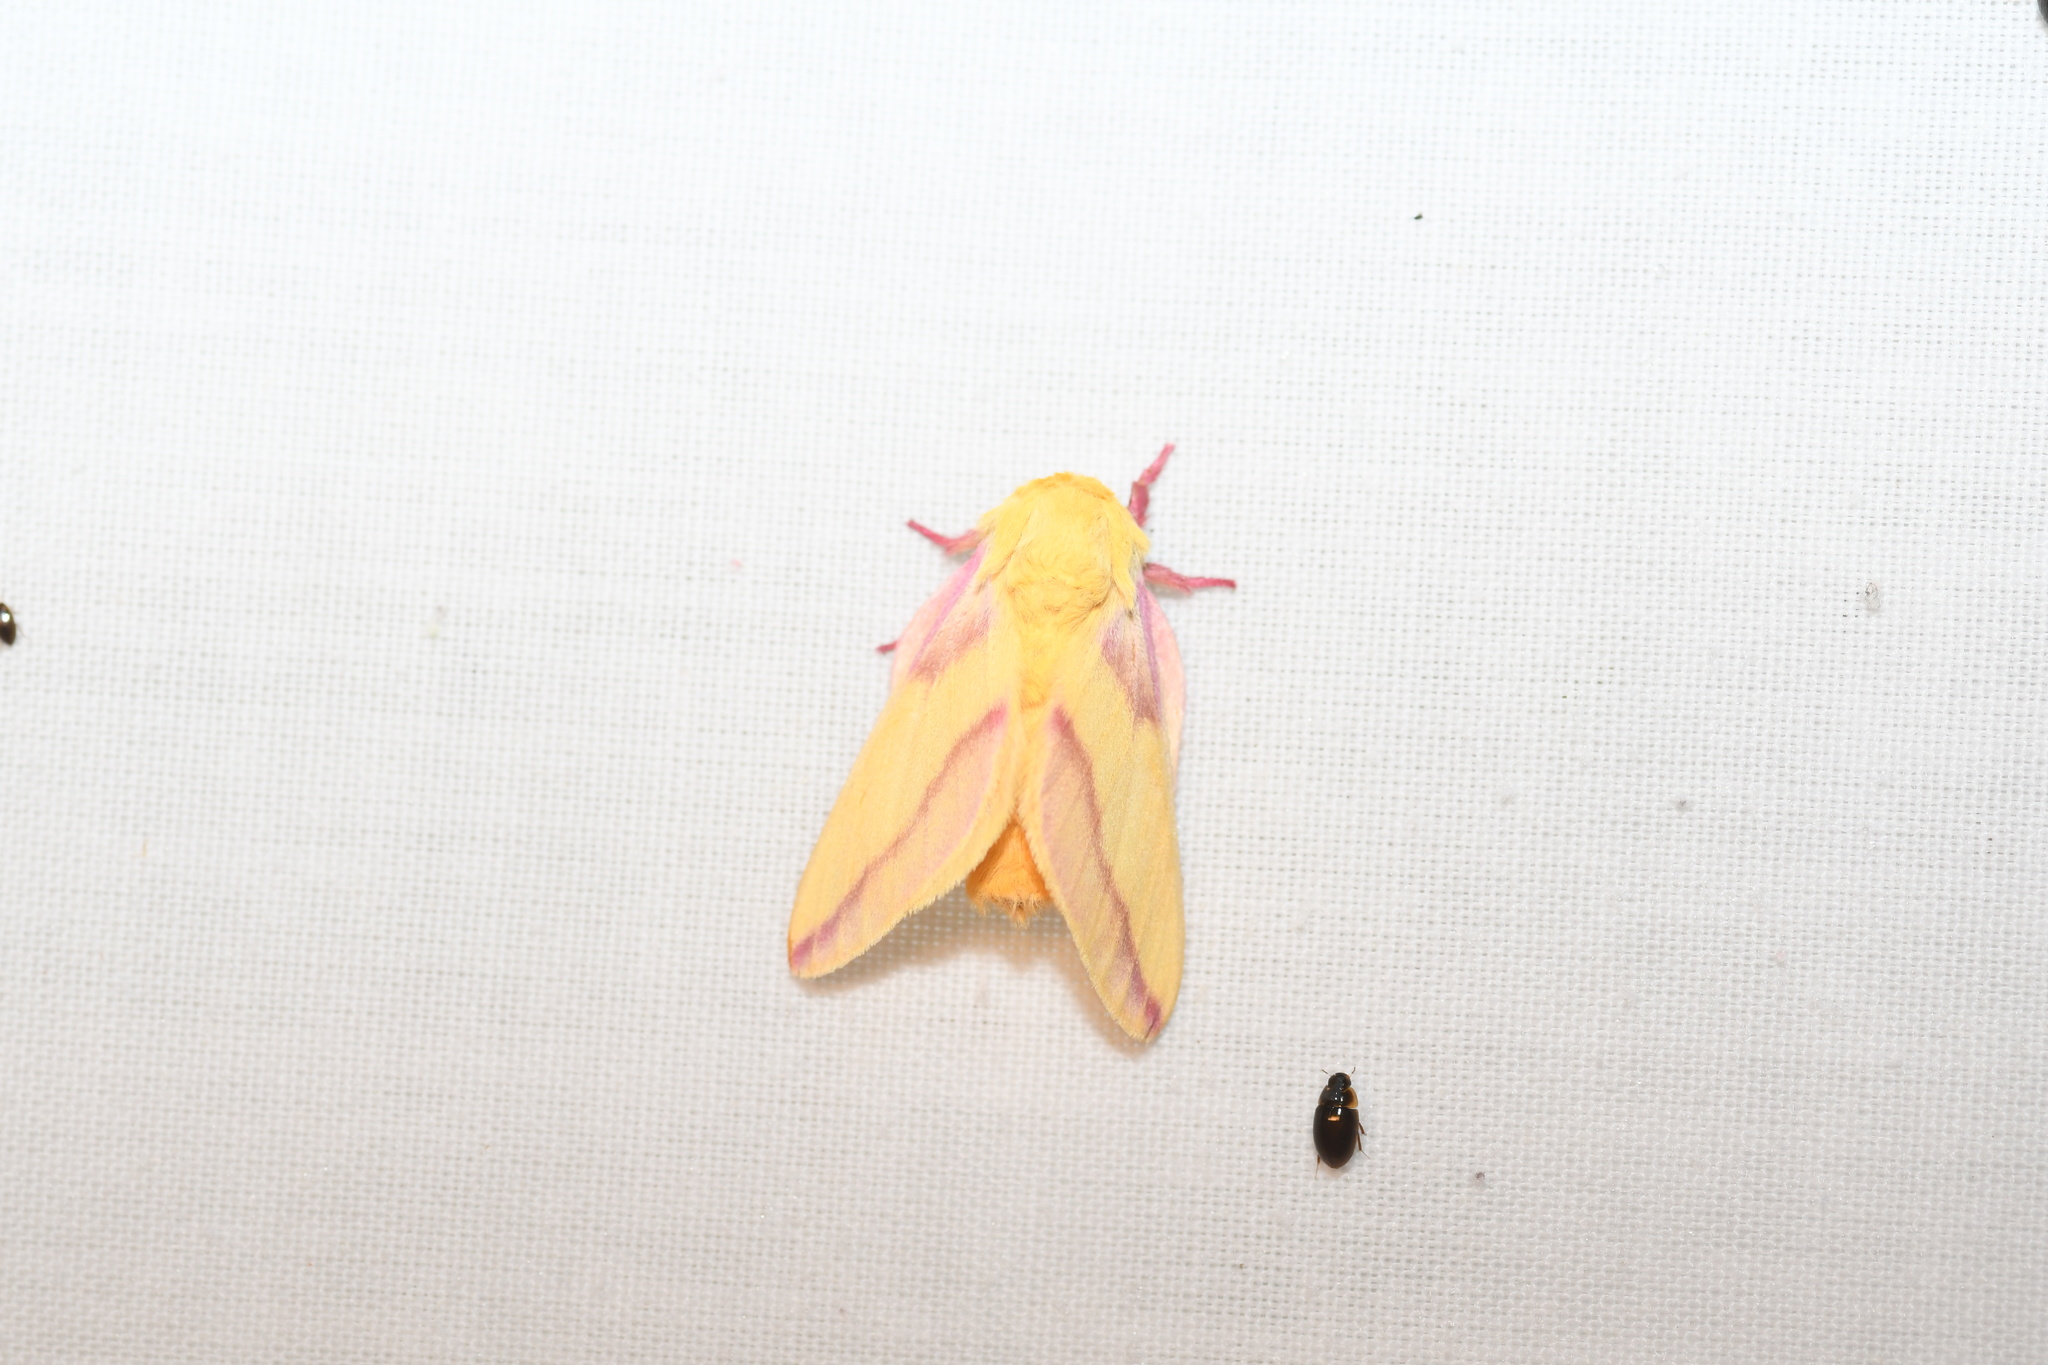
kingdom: Animalia
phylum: Arthropoda
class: Insecta
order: Lepidoptera
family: Saturniidae
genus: Dryocampa
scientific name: Dryocampa rubicunda
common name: Rosy maple moth
